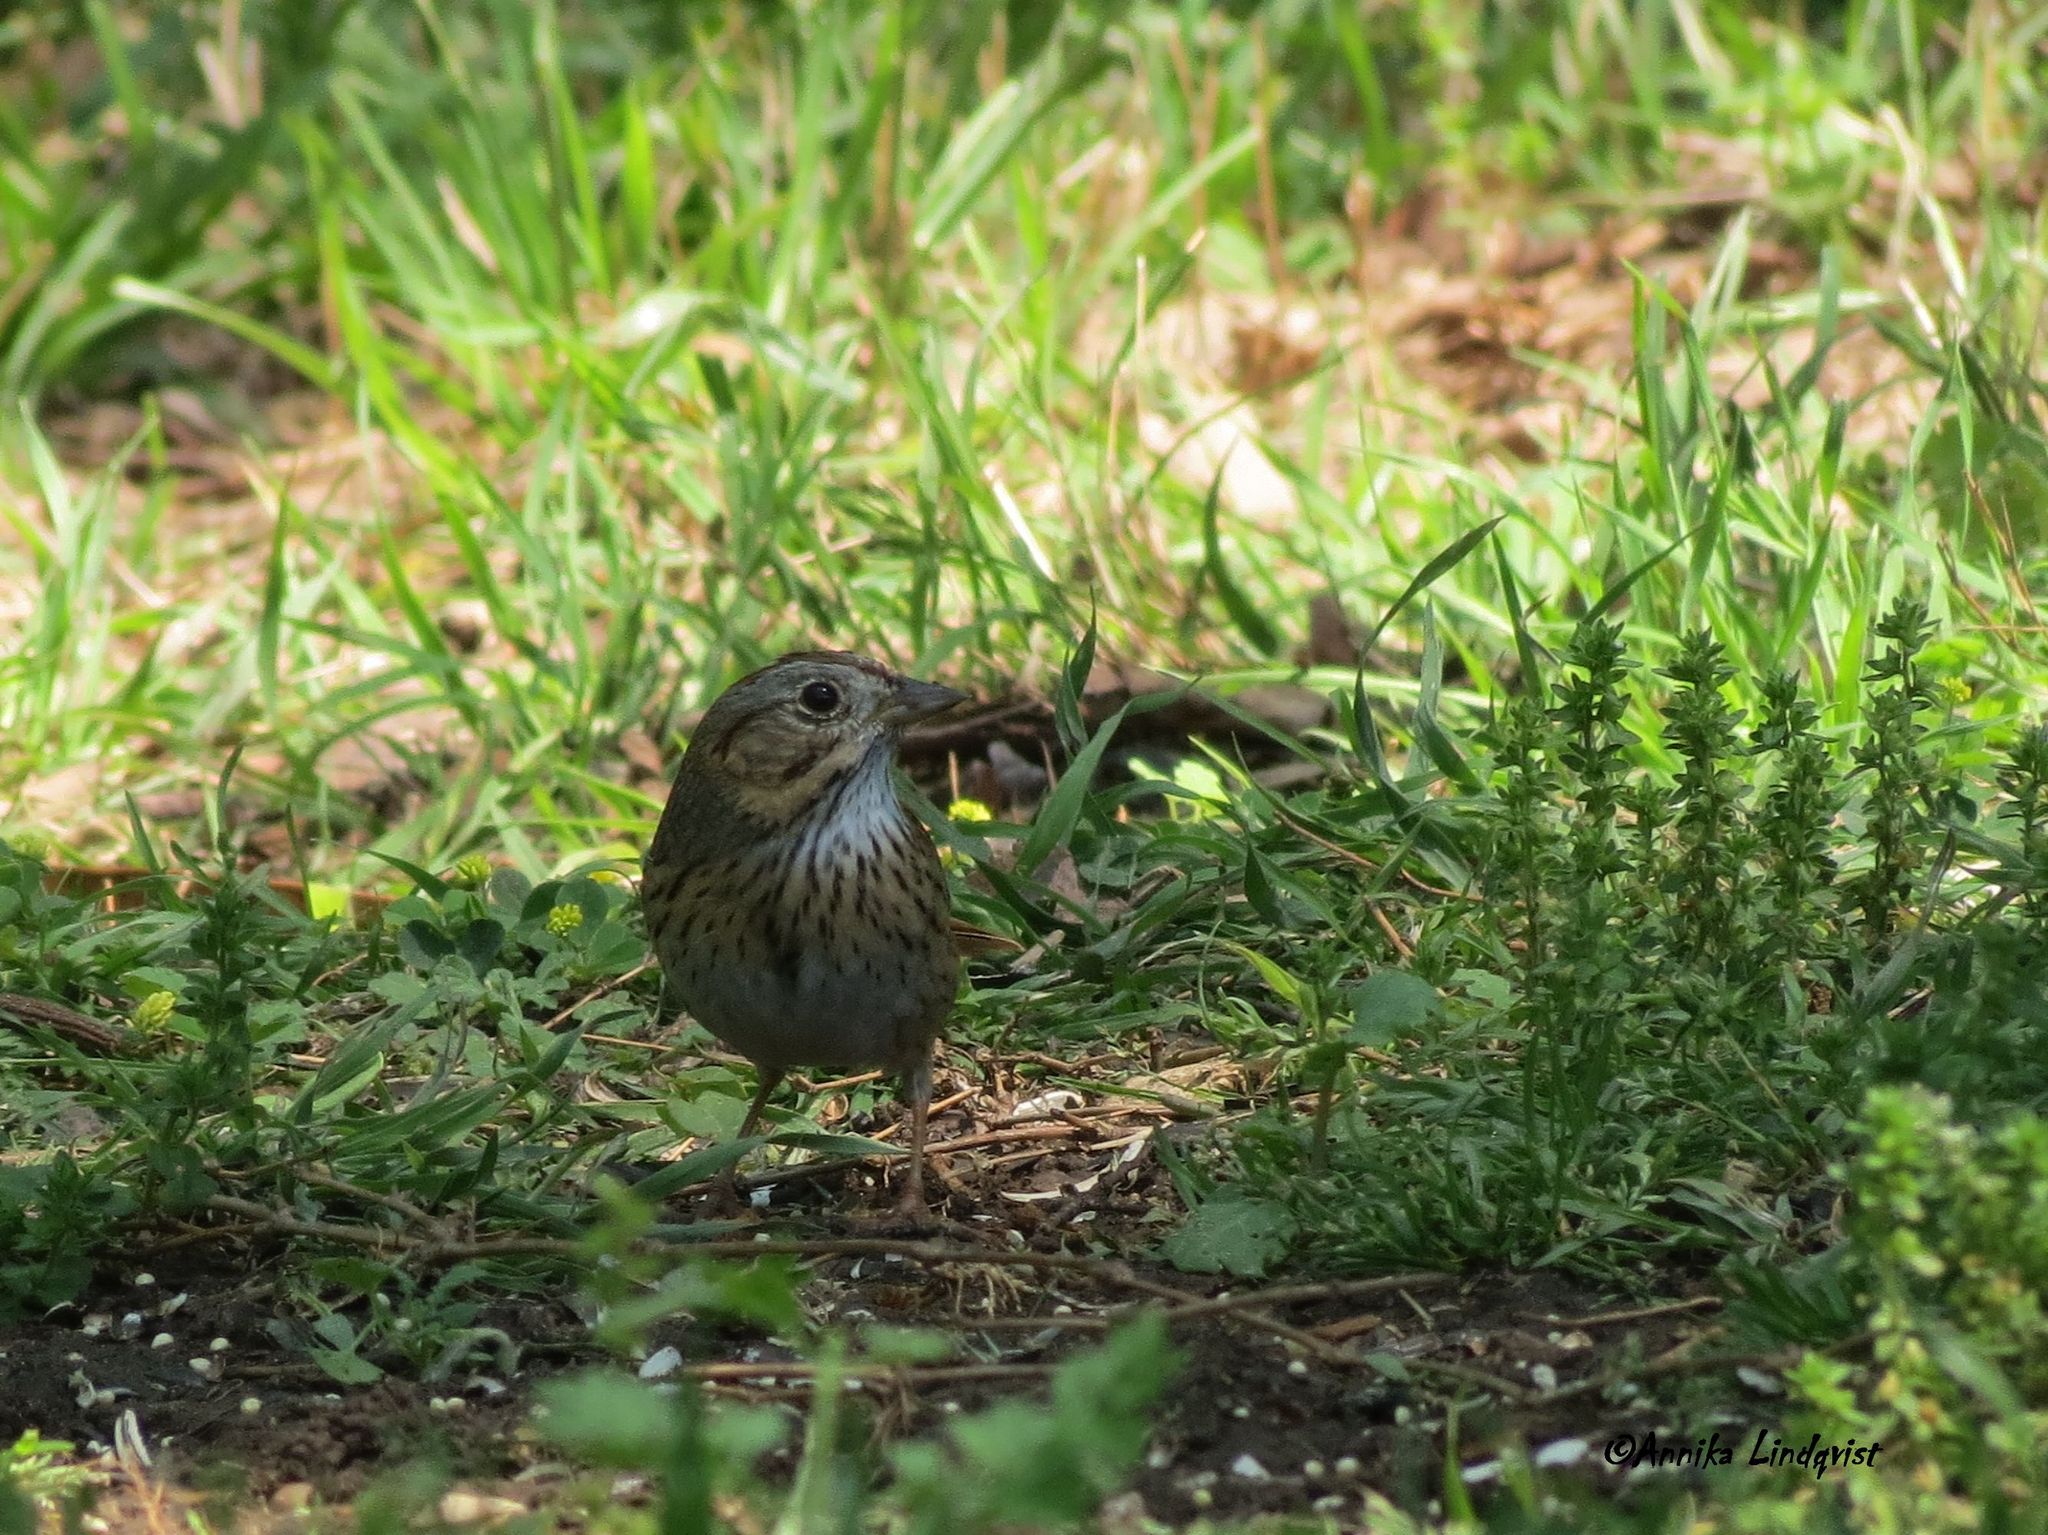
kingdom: Animalia
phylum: Chordata
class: Aves
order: Passeriformes
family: Passerellidae
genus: Melospiza
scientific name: Melospiza lincolnii
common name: Lincoln's sparrow
